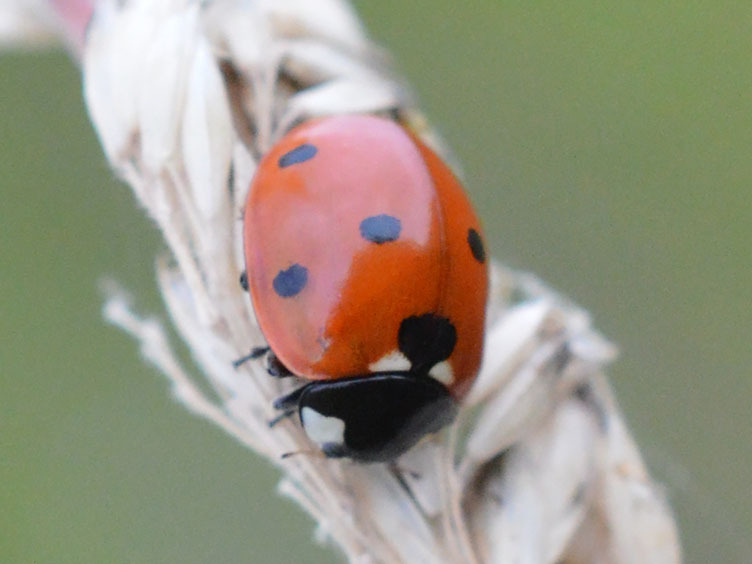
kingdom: Animalia
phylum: Arthropoda
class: Insecta
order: Coleoptera
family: Coccinellidae
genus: Coccinella
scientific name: Coccinella septempunctata
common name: Sevenspotted lady beetle
